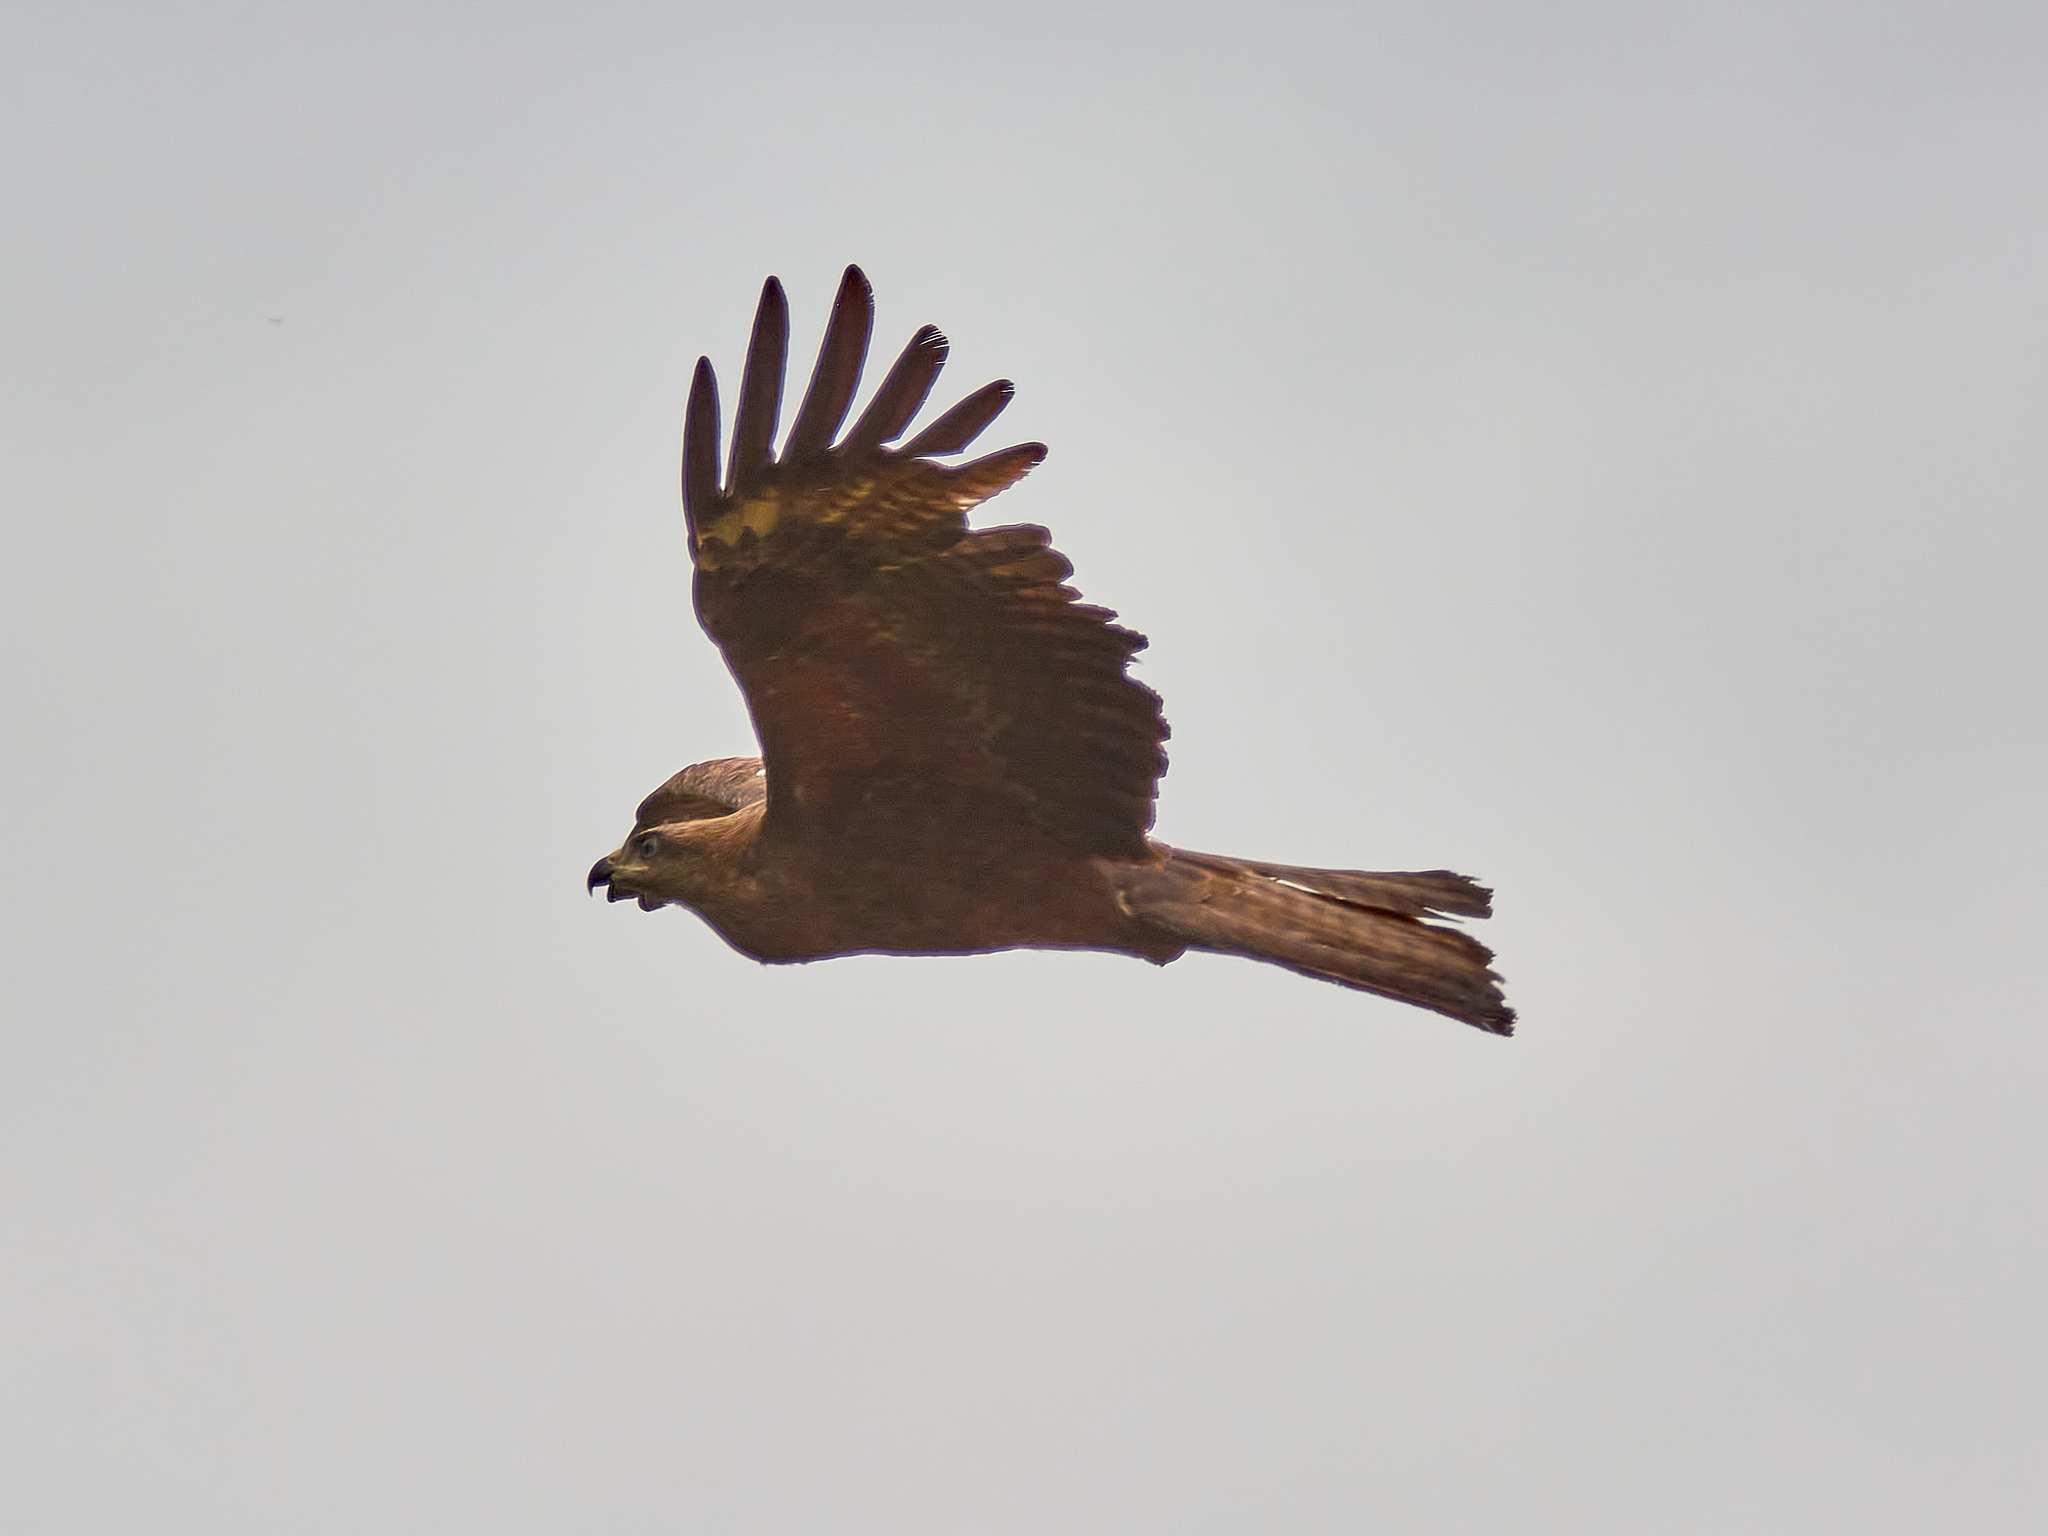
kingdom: Animalia
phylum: Chordata
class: Aves
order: Accipitriformes
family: Accipitridae
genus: Milvus
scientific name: Milvus migrans
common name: Black kite
